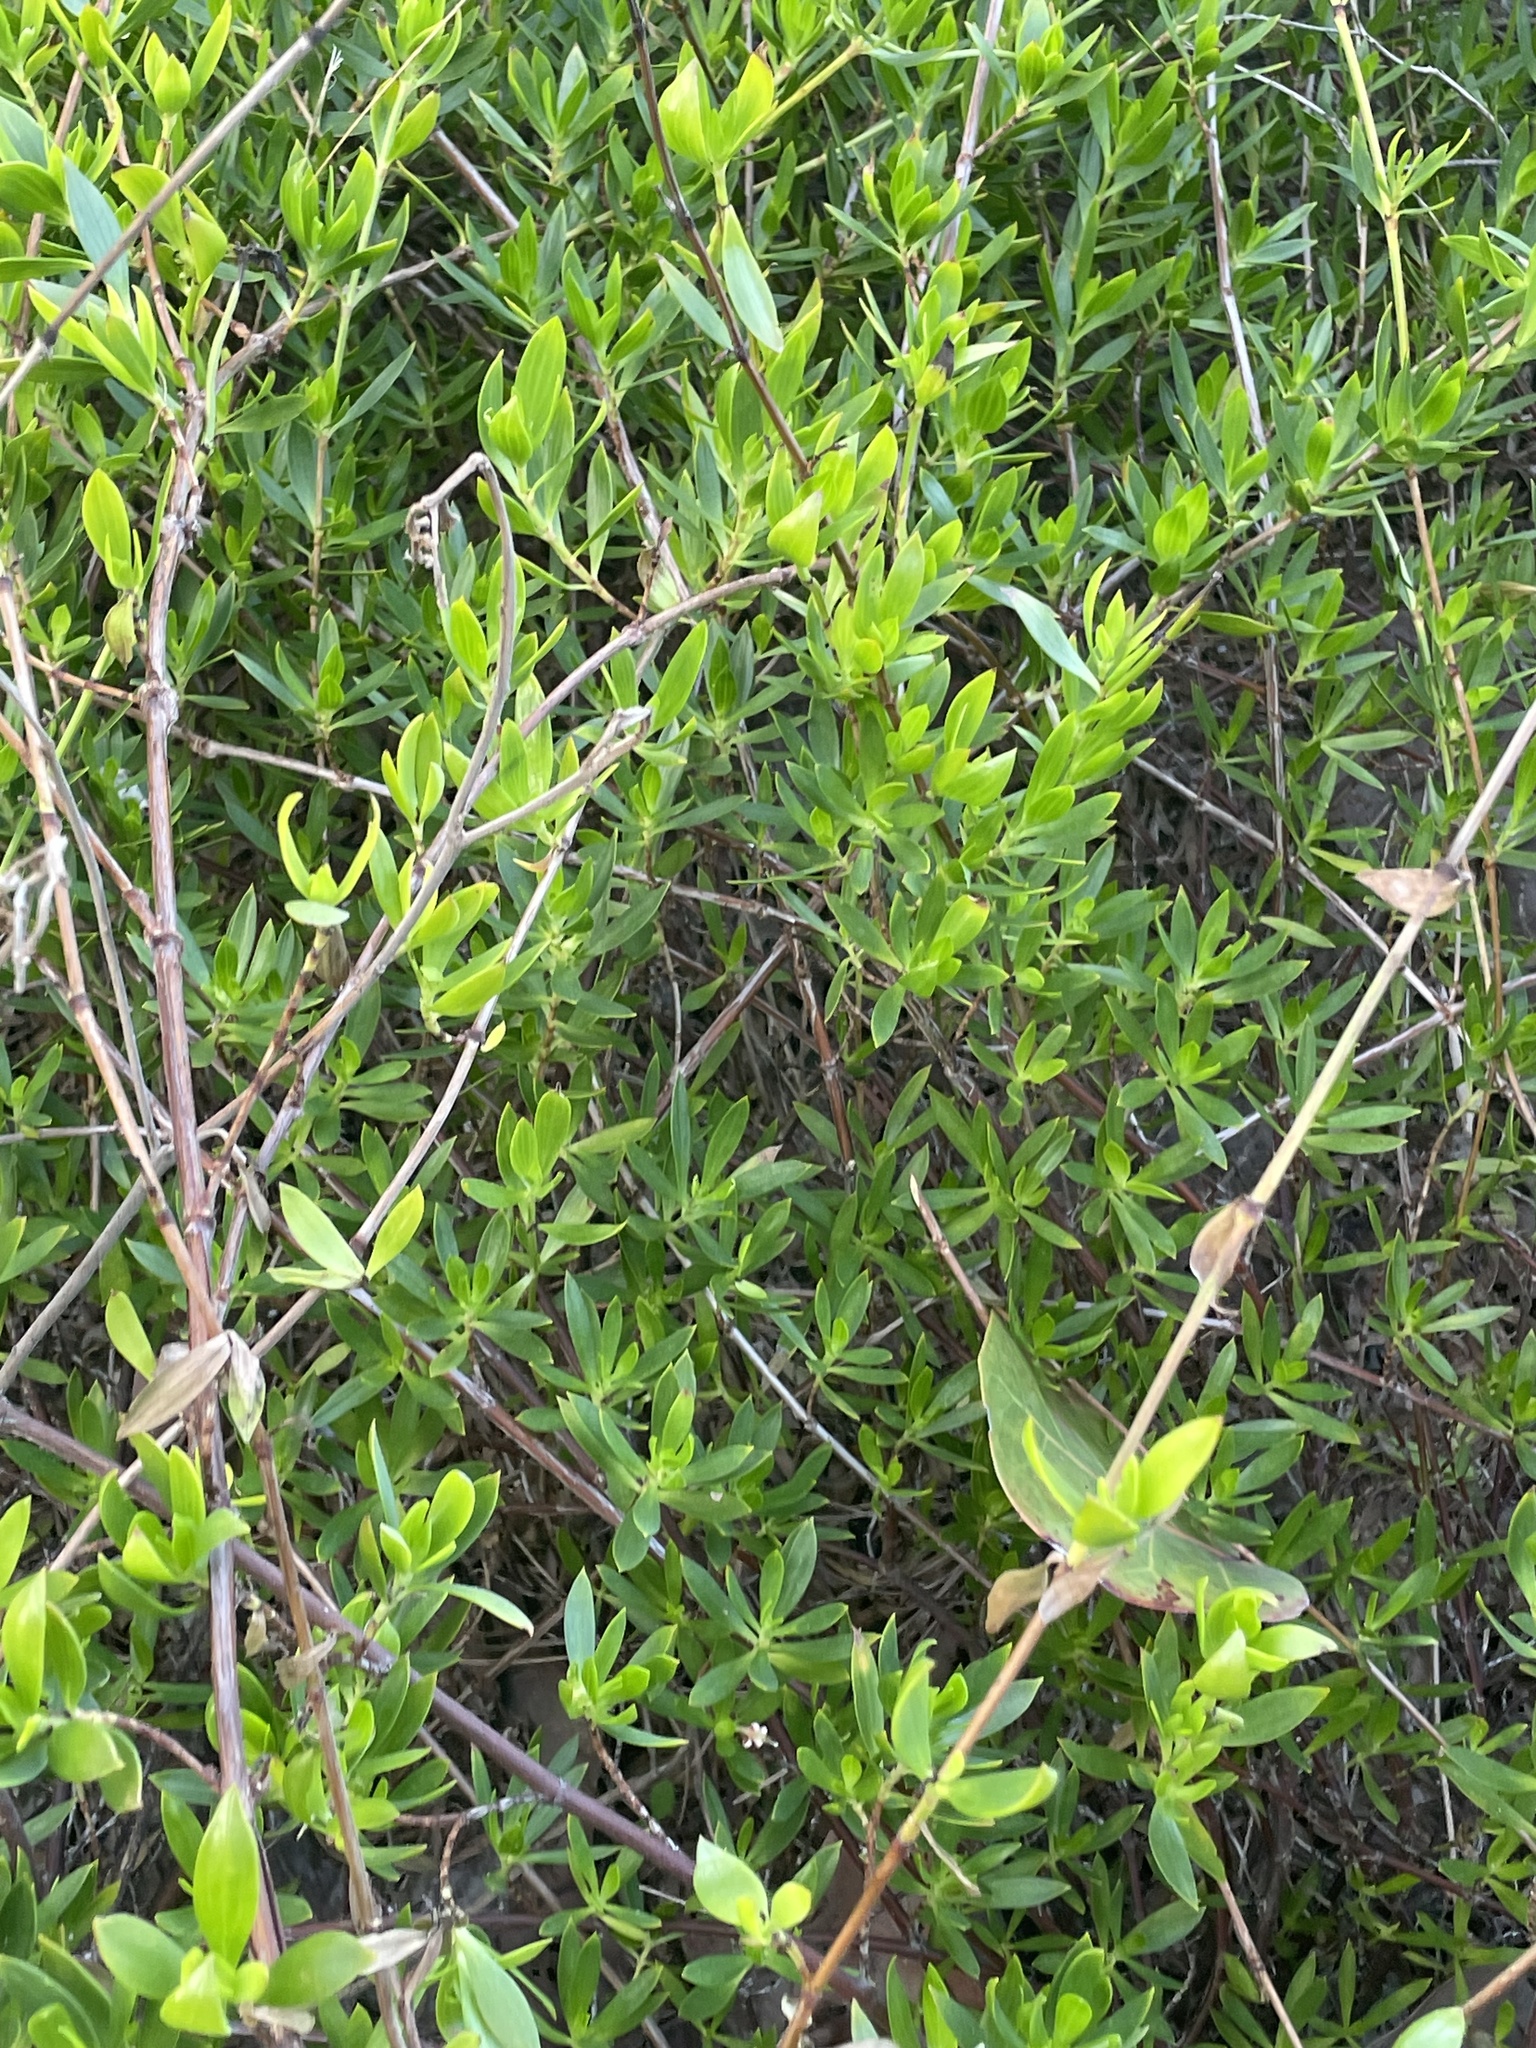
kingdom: Plantae
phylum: Tracheophyta
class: Magnoliopsida
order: Gentianales
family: Rubiaceae
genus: Ernodea
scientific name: Ernodea littoralis
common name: Beach creeper
